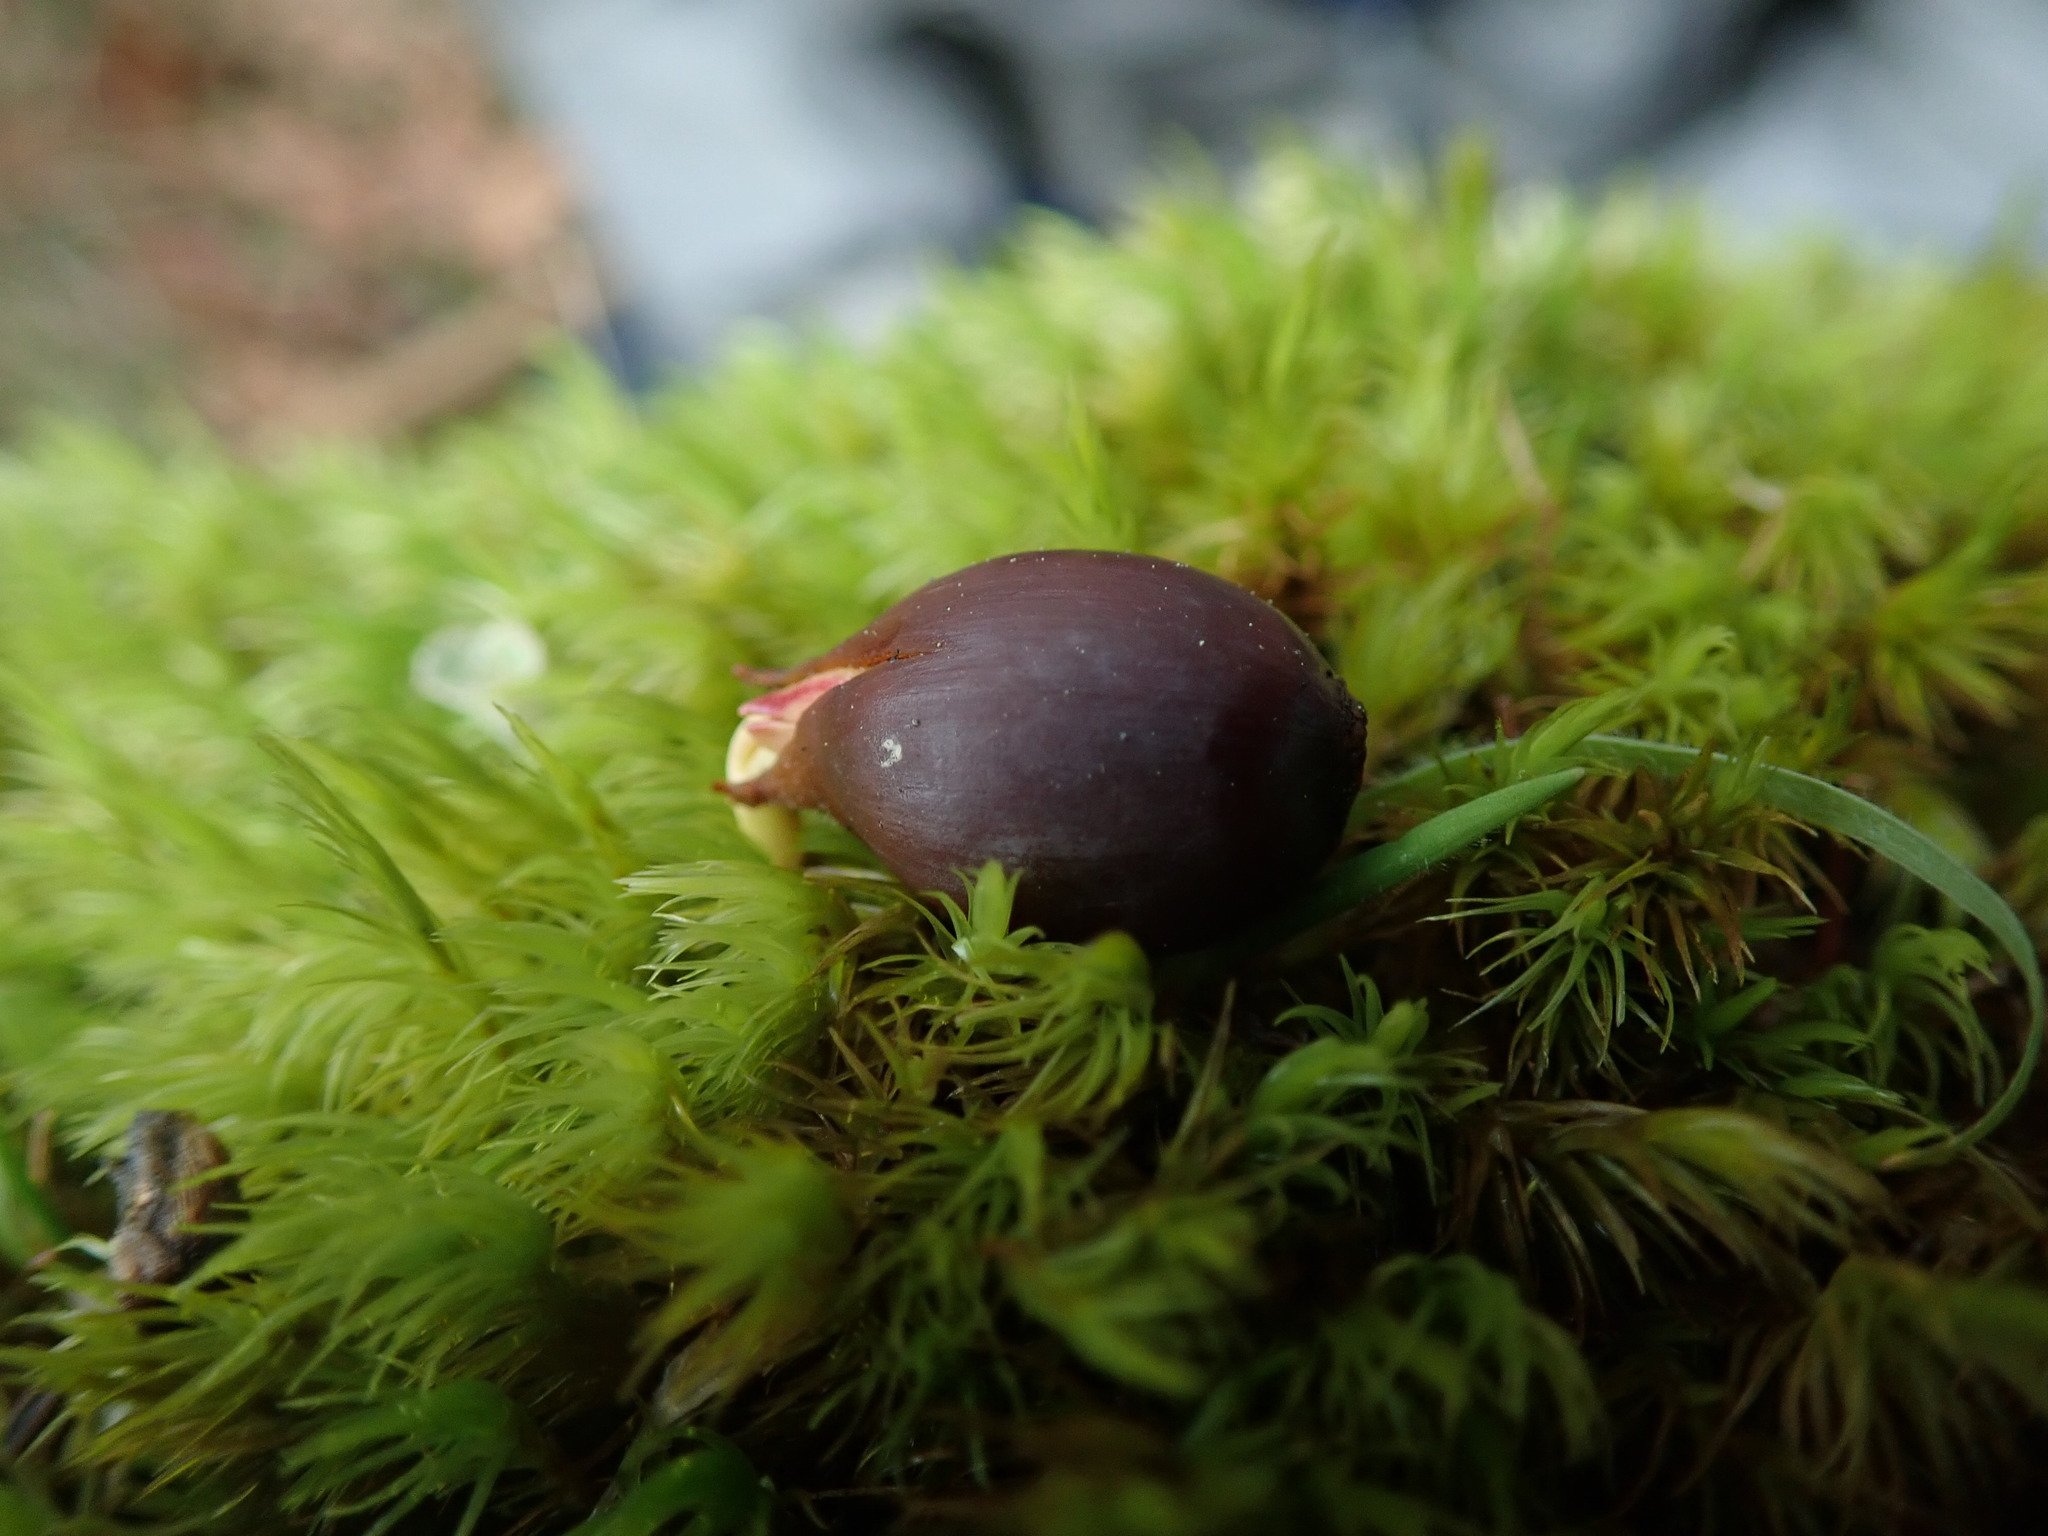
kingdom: Plantae
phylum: Tracheophyta
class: Magnoliopsida
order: Fagales
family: Fagaceae
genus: Quercus
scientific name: Quercus garryana
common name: Garry oak
